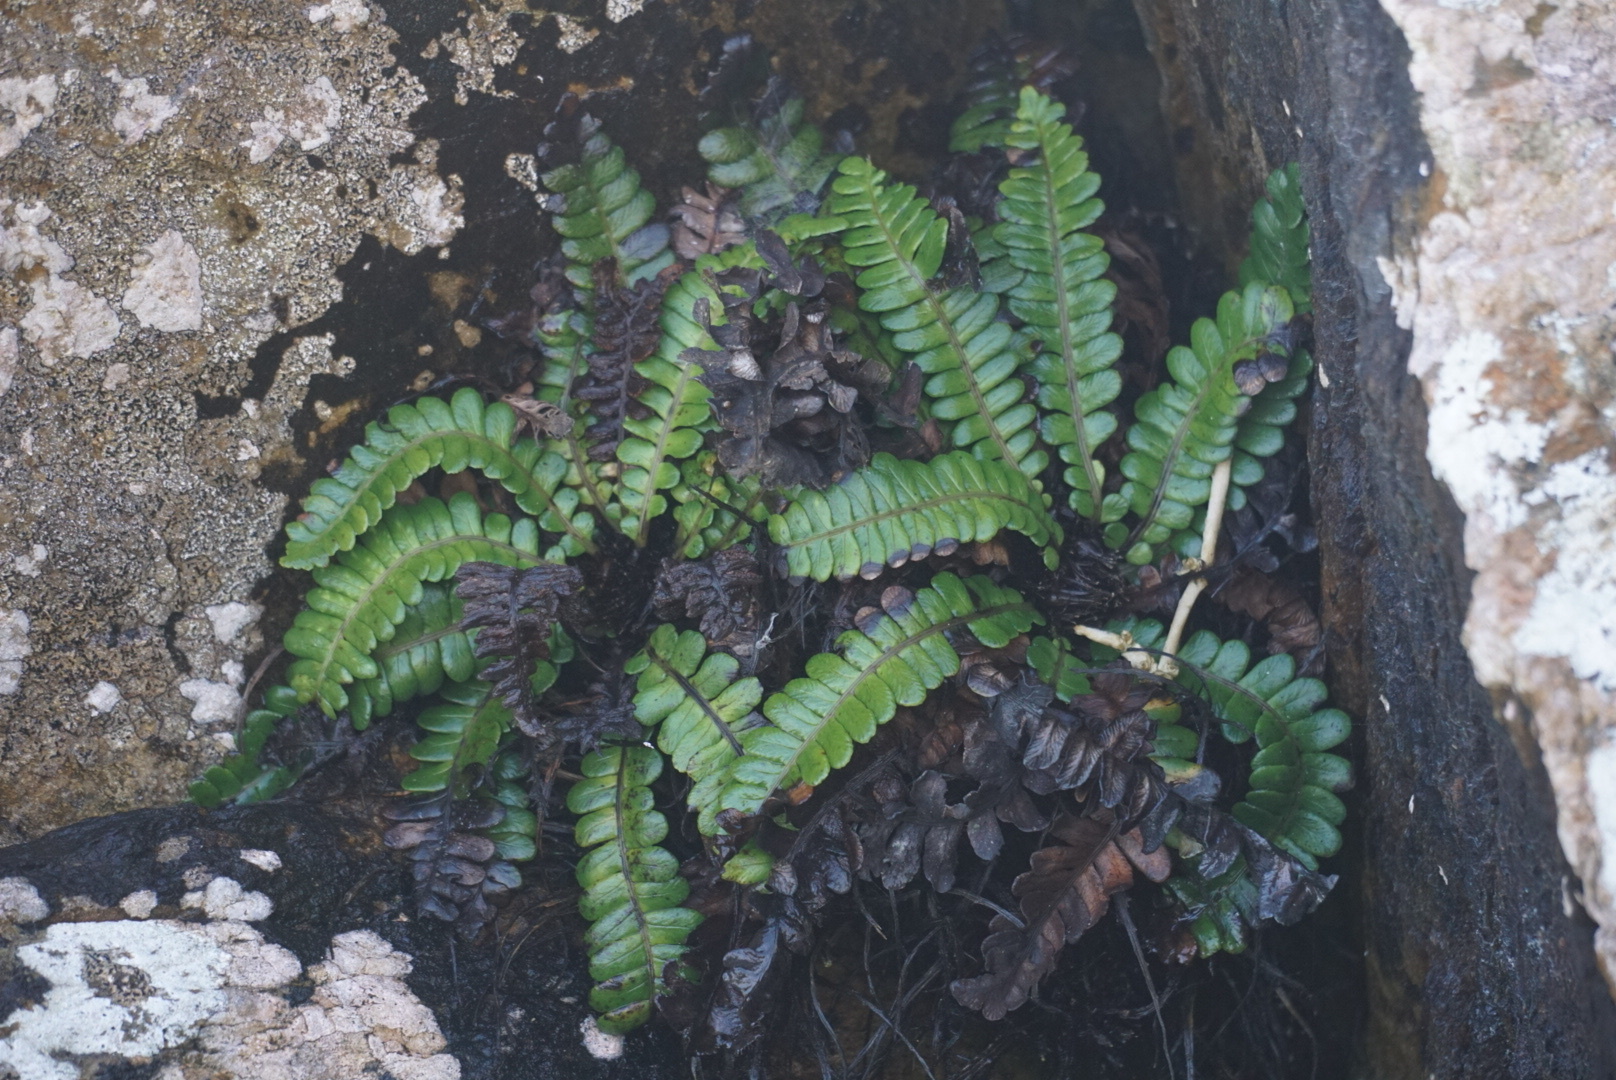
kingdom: Plantae
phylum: Tracheophyta
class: Polypodiopsida
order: Polypodiales
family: Blechnaceae
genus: Austroblechnum
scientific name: Austroblechnum durum
